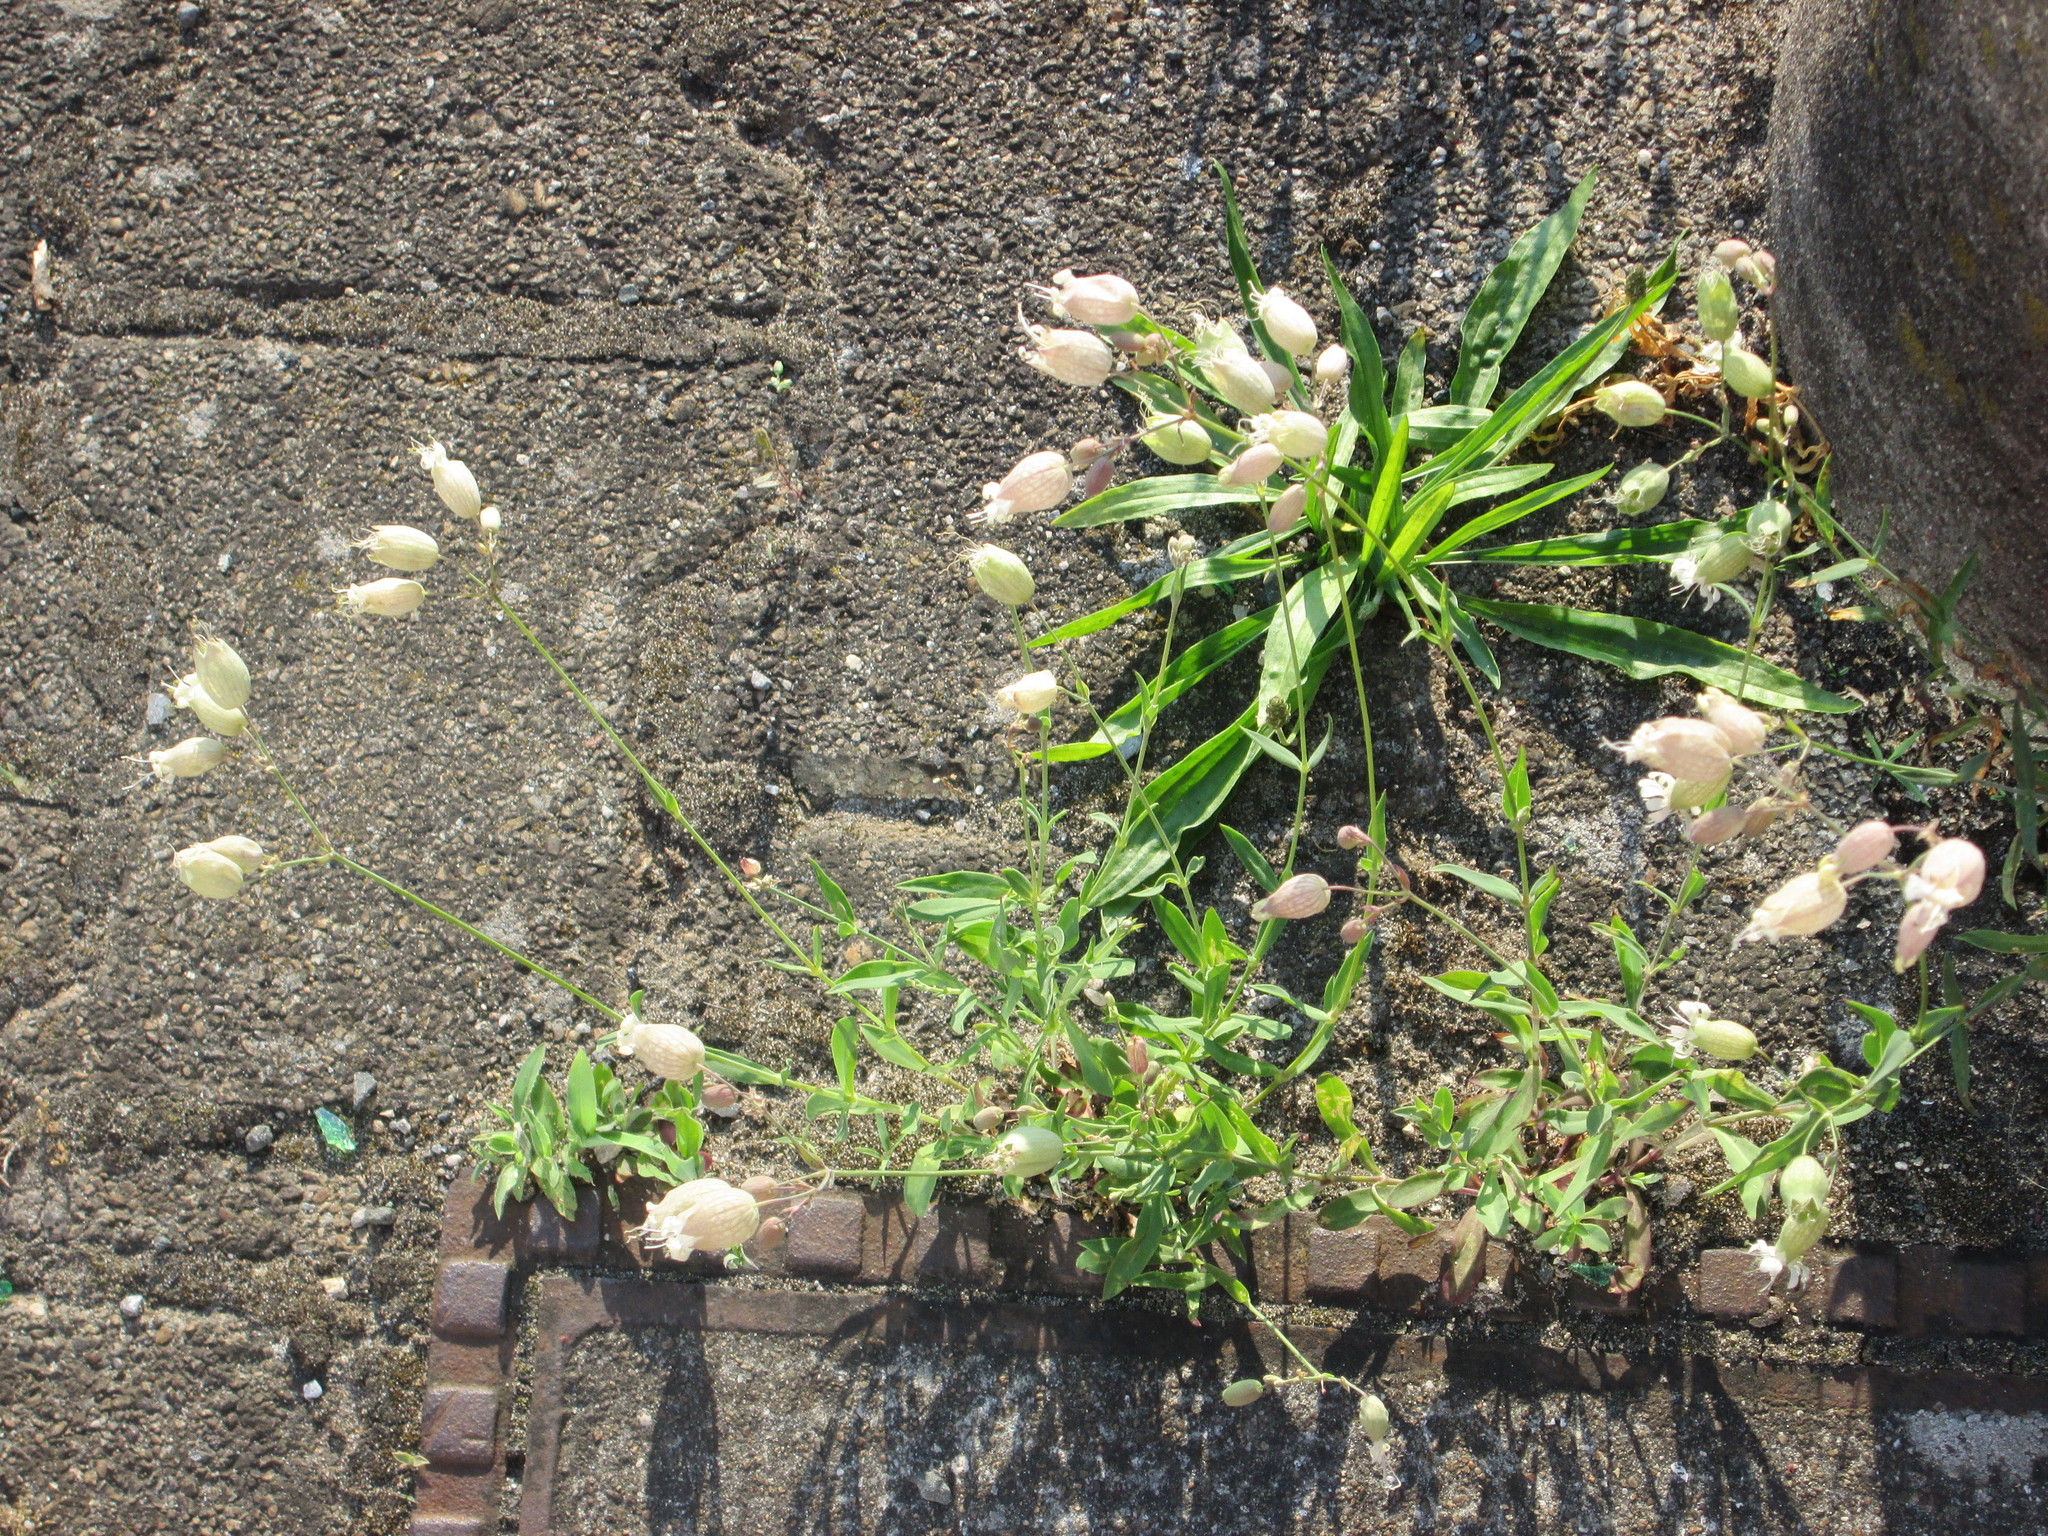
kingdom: Plantae
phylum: Tracheophyta
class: Magnoliopsida
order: Caryophyllales
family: Caryophyllaceae
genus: Silene
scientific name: Silene vulgaris
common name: Bladder campion
